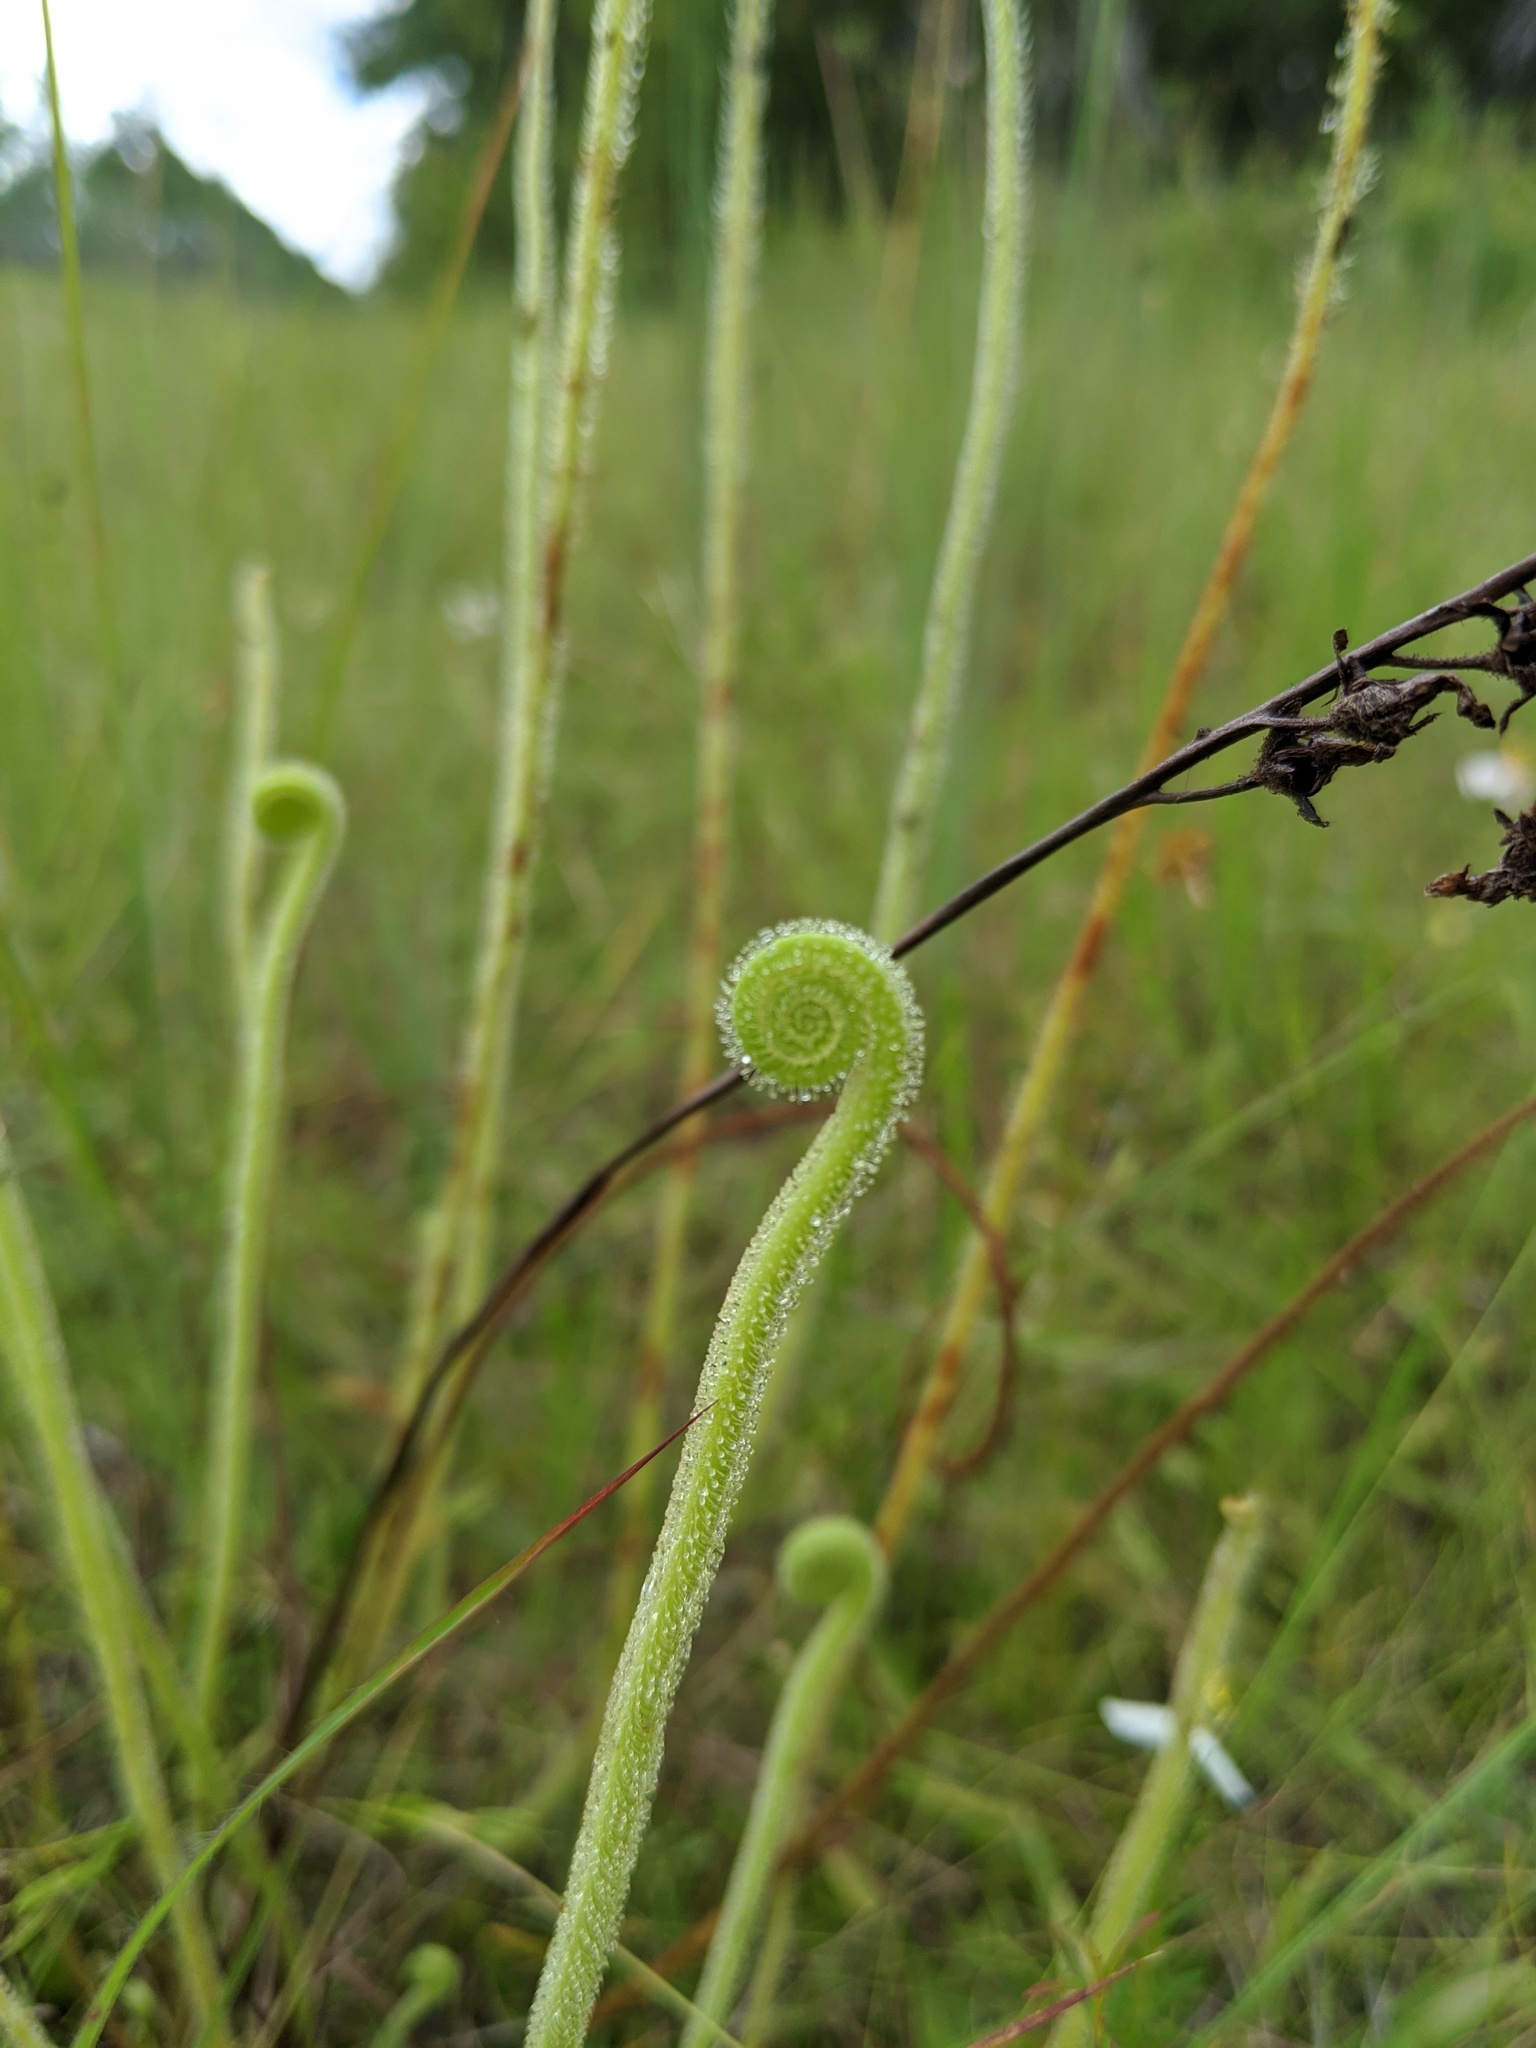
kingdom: Plantae
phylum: Tracheophyta
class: Magnoliopsida
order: Caryophyllales
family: Droseraceae
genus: Drosera
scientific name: Drosera filiformis
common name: Dew-thread
